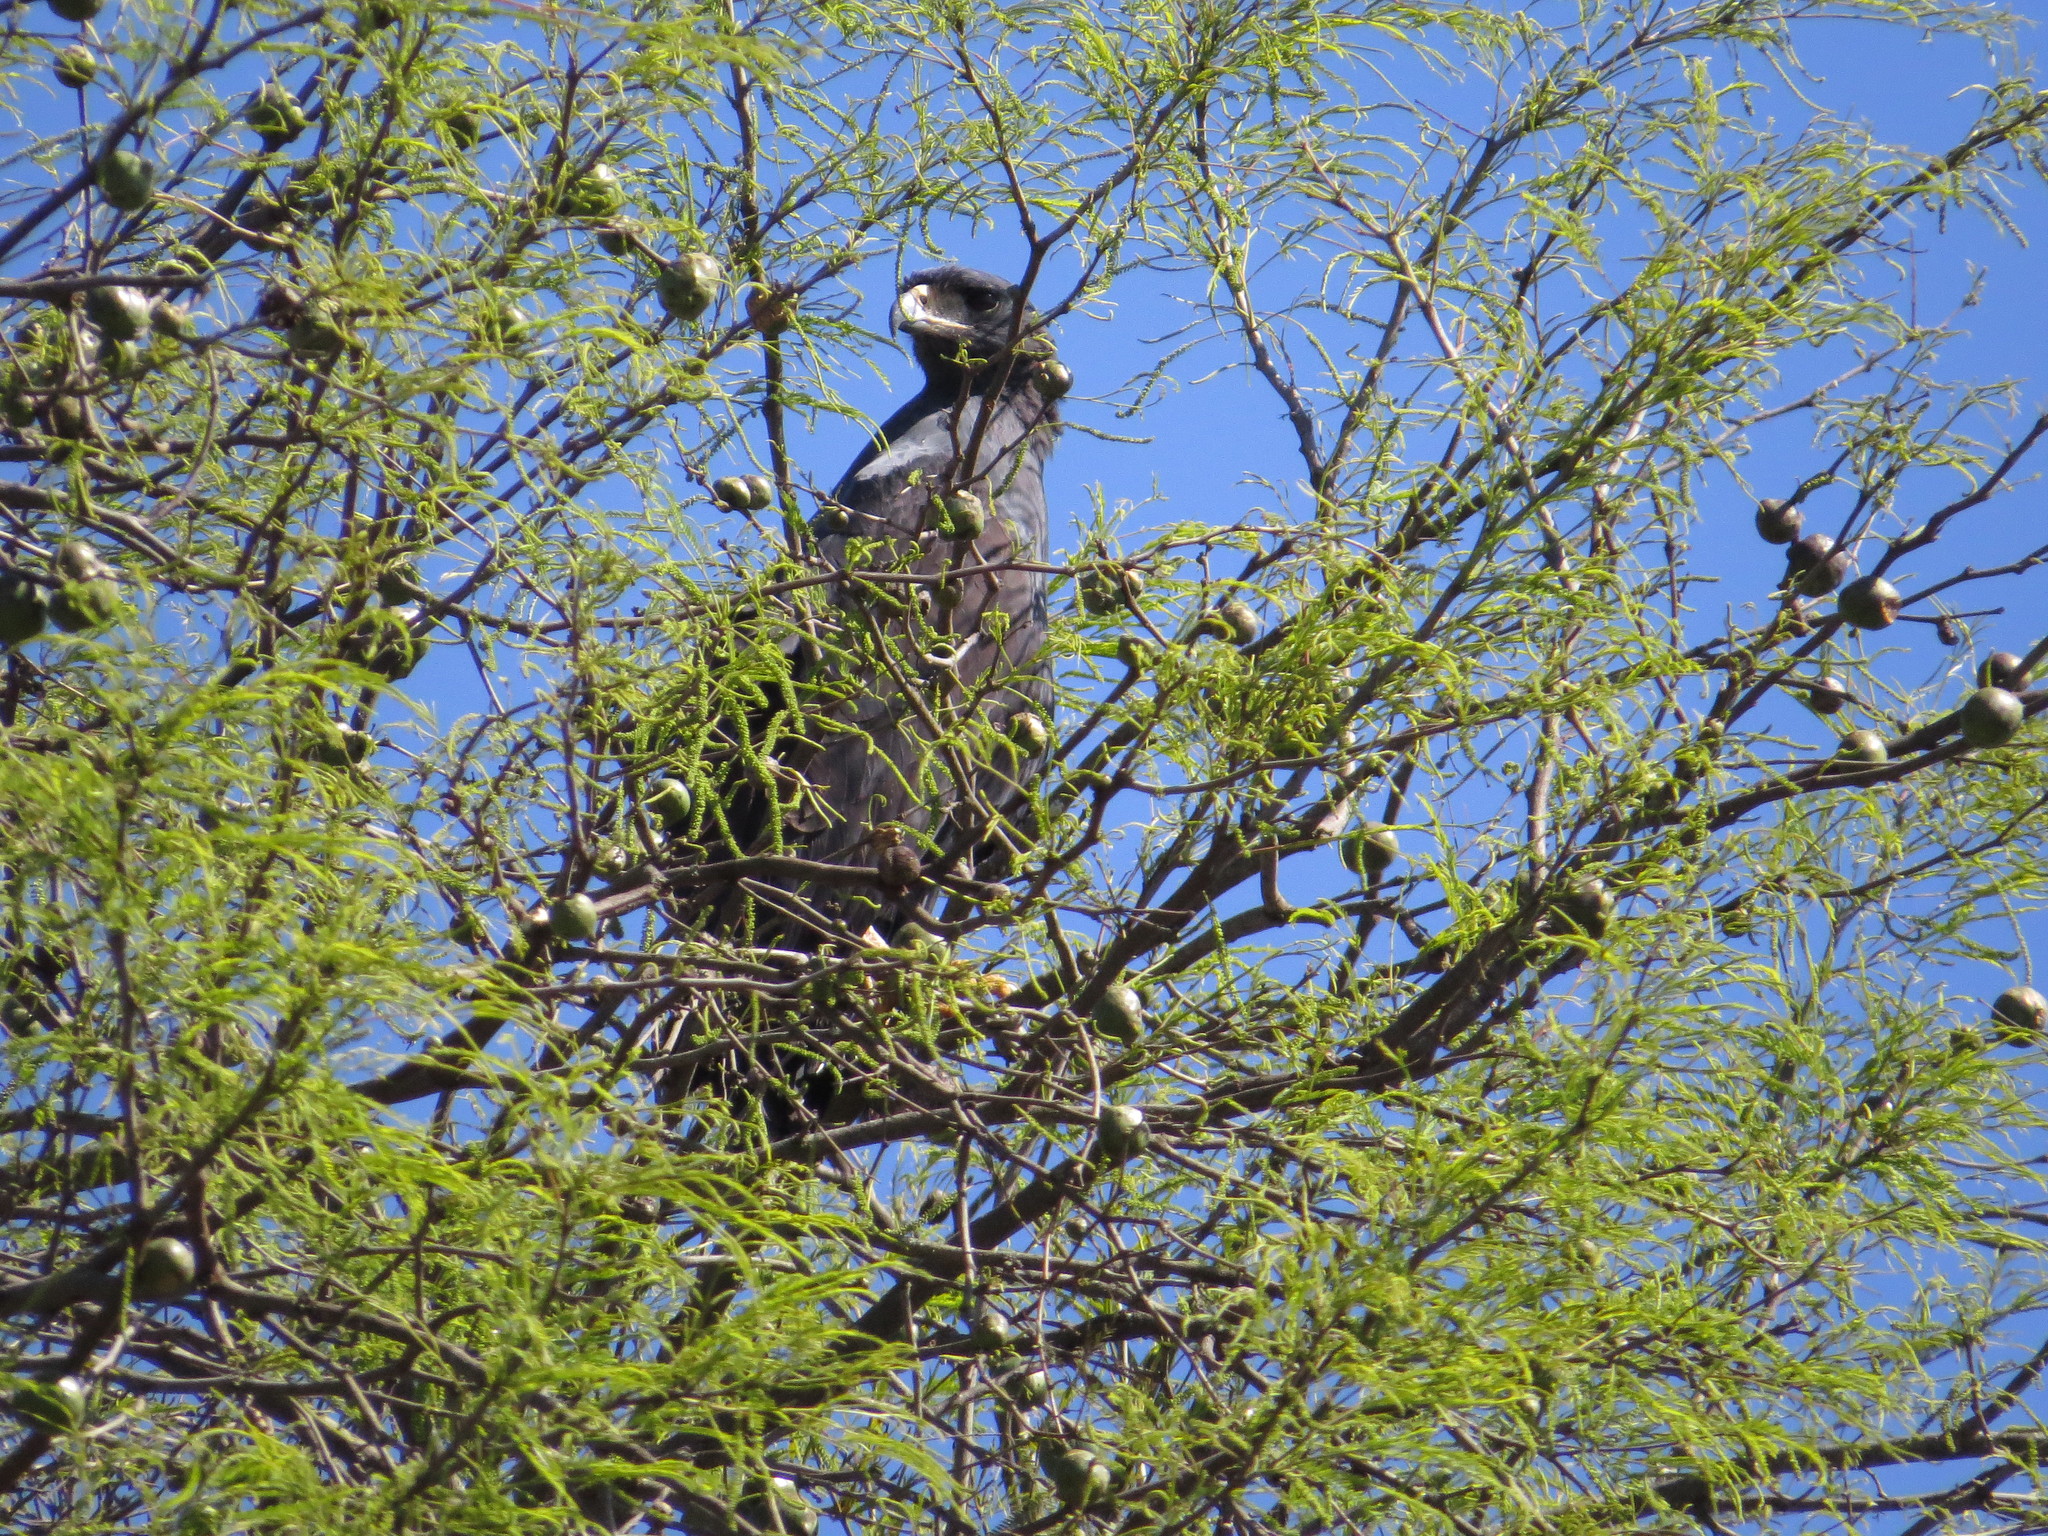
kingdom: Animalia
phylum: Chordata
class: Aves
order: Accipitriformes
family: Accipitridae
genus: Buteogallus
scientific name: Buteogallus urubitinga
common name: Great black hawk
